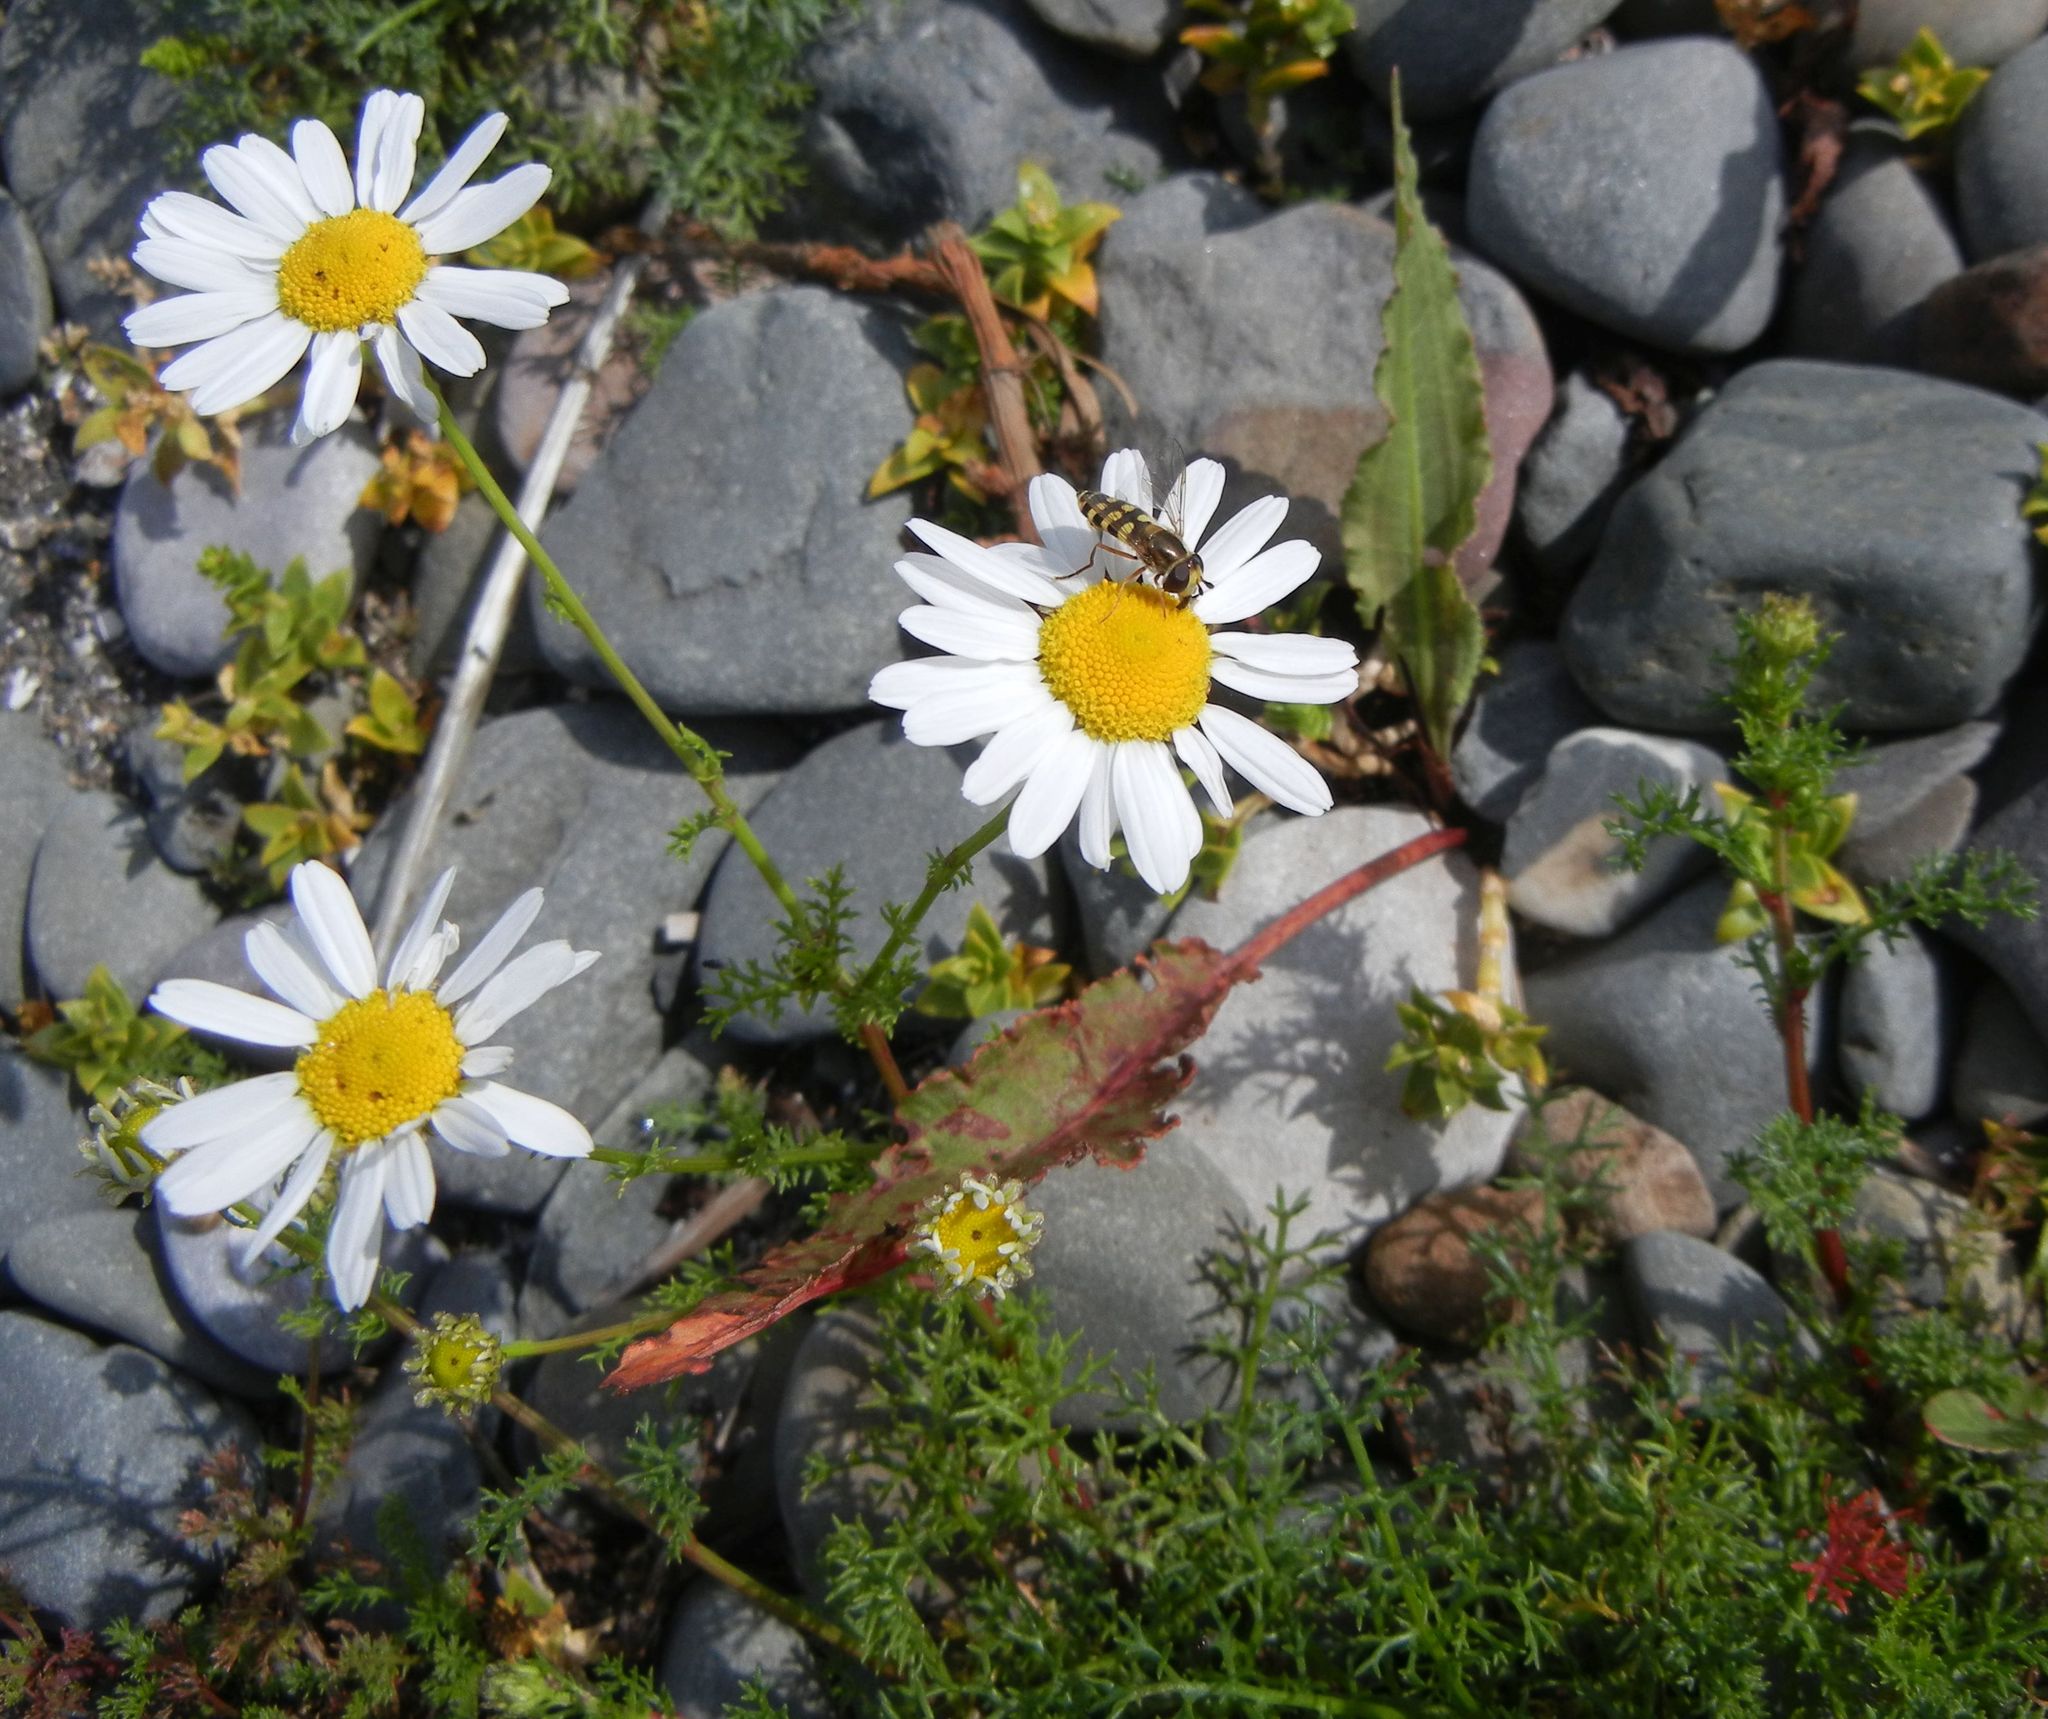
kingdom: Plantae
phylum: Tracheophyta
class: Magnoliopsida
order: Asterales
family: Asteraceae
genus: Tripleurospermum
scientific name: Tripleurospermum maritimum
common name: Sea mayweed
